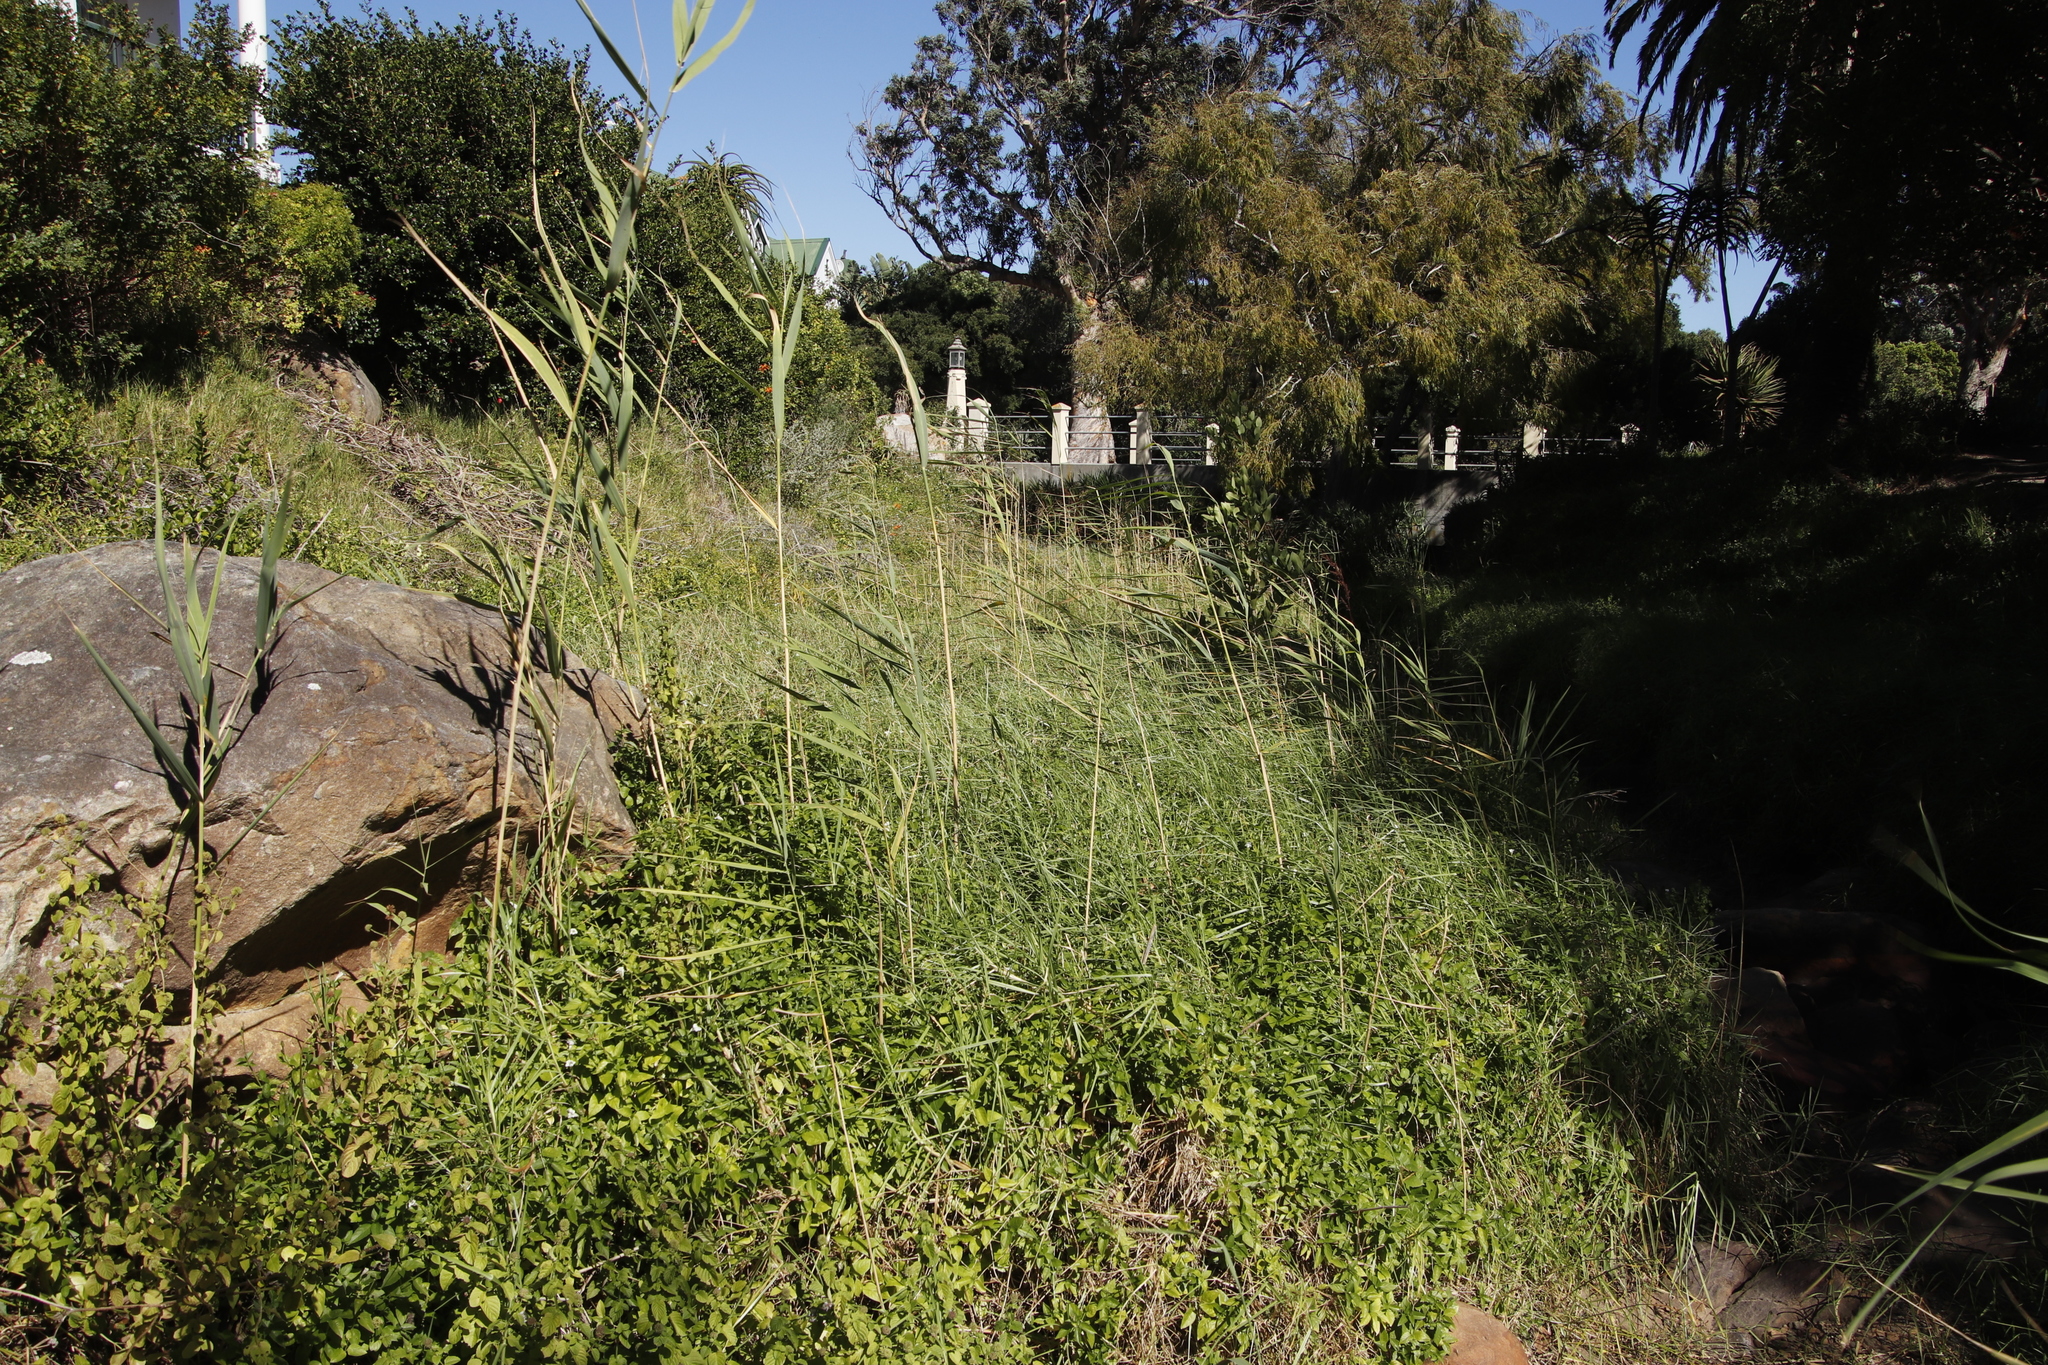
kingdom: Plantae
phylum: Tracheophyta
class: Liliopsida
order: Poales
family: Poaceae
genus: Phragmites
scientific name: Phragmites australis
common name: Common reed
